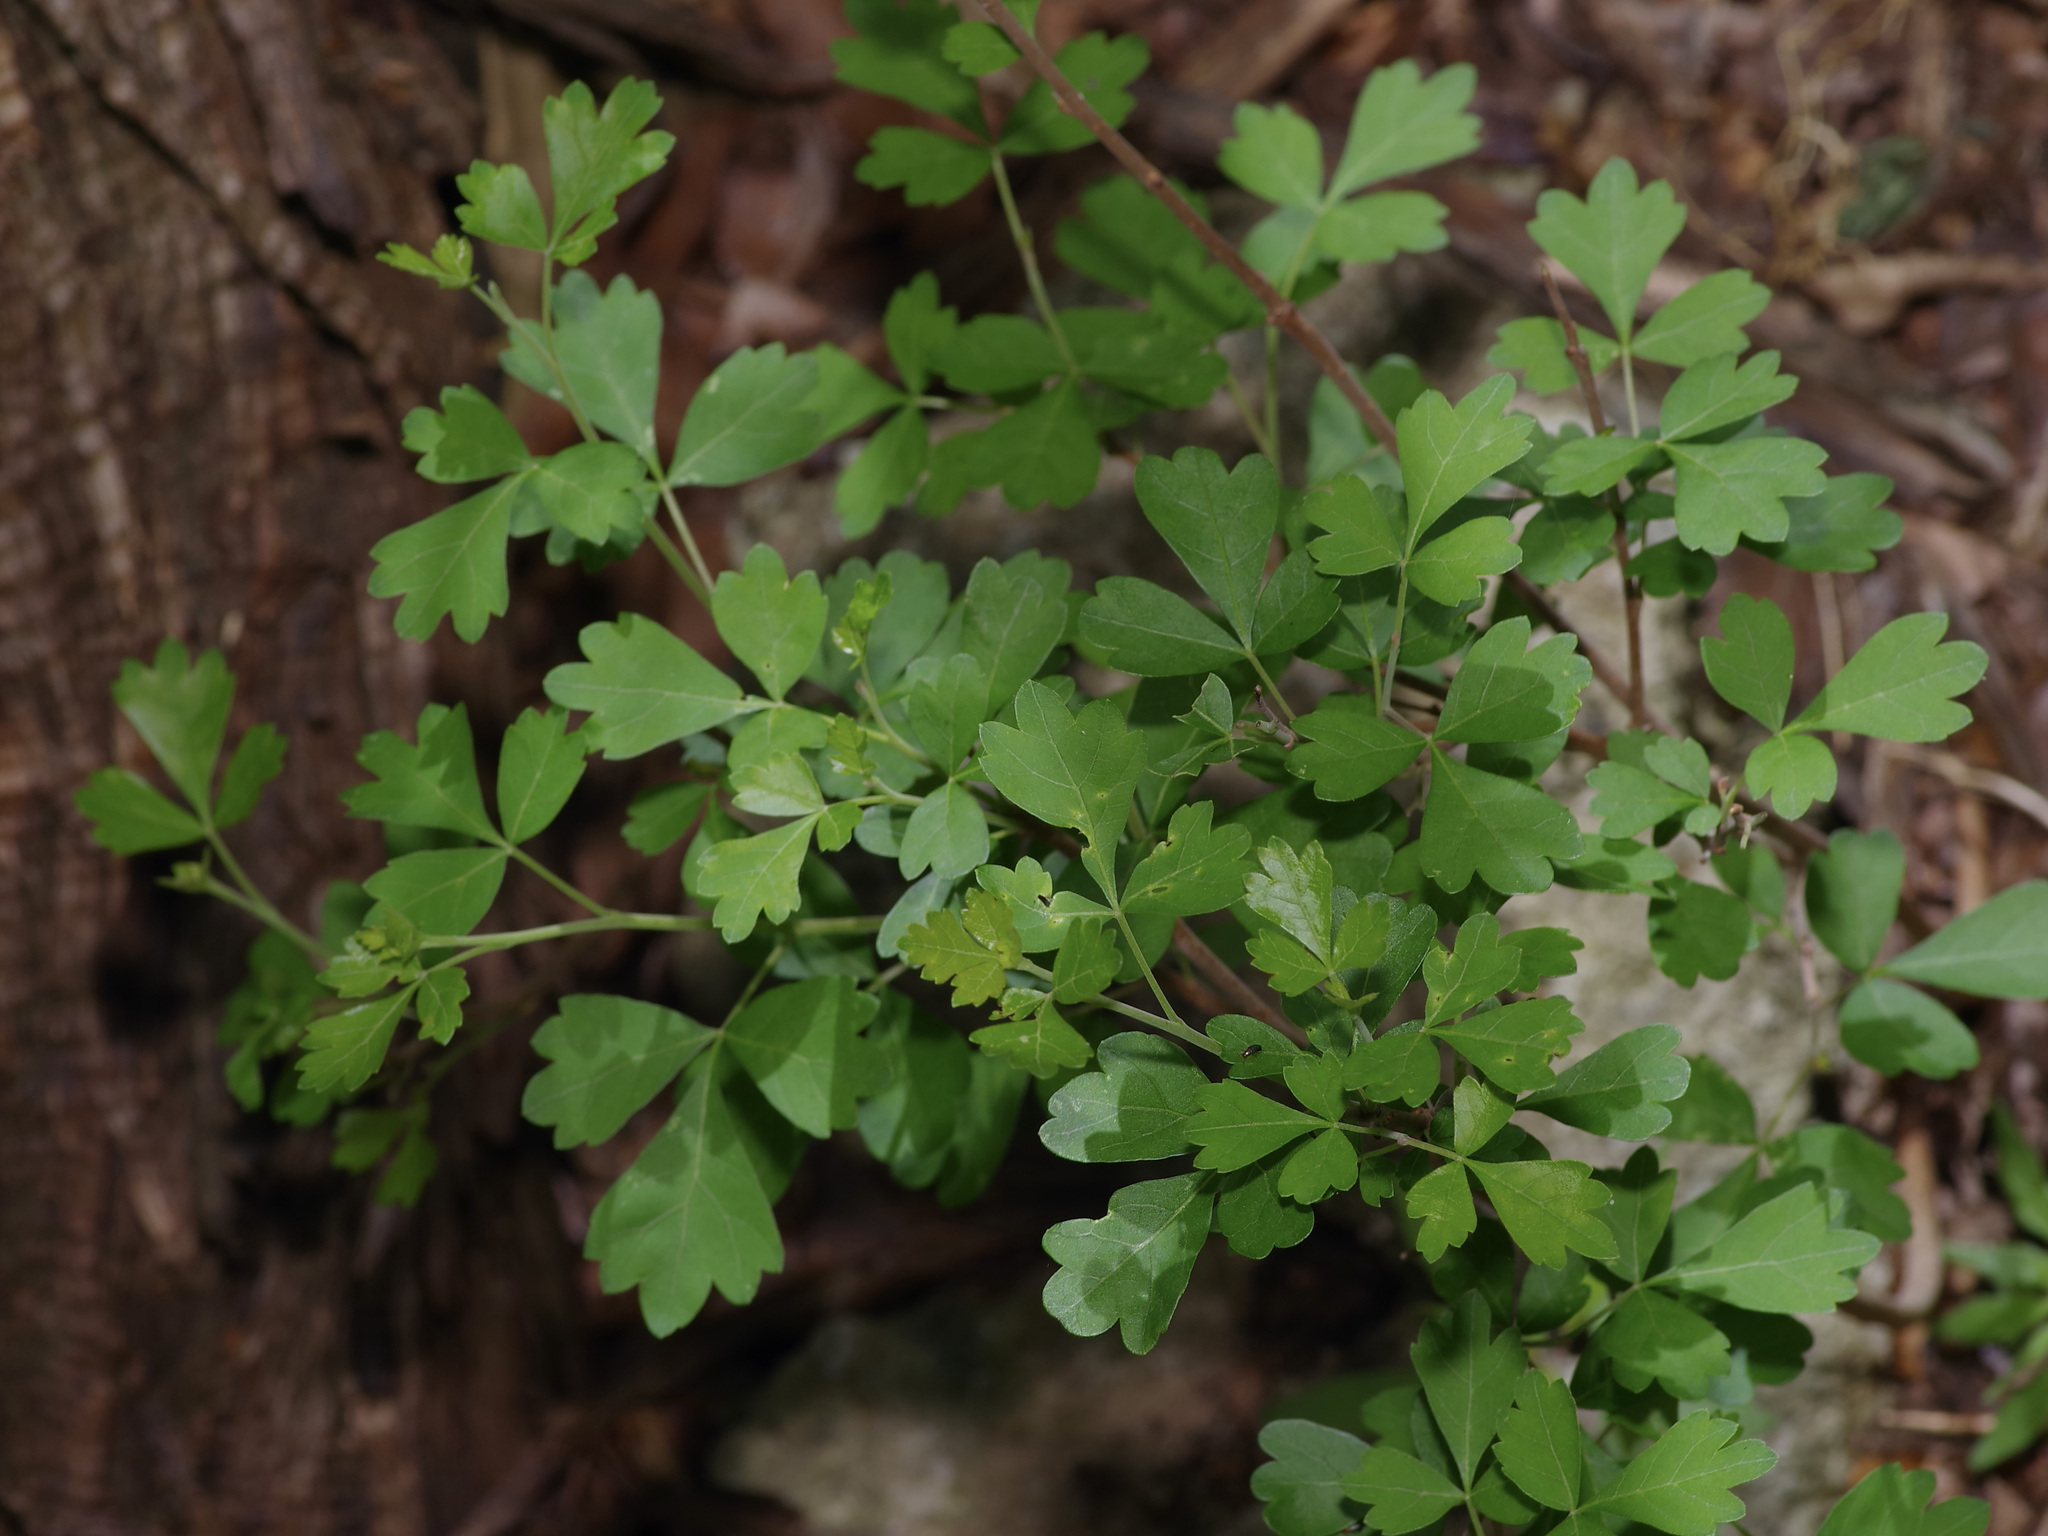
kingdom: Plantae
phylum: Tracheophyta
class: Magnoliopsida
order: Sapindales
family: Anacardiaceae
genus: Rhus
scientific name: Rhus aromatica
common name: Aromatic sumac
